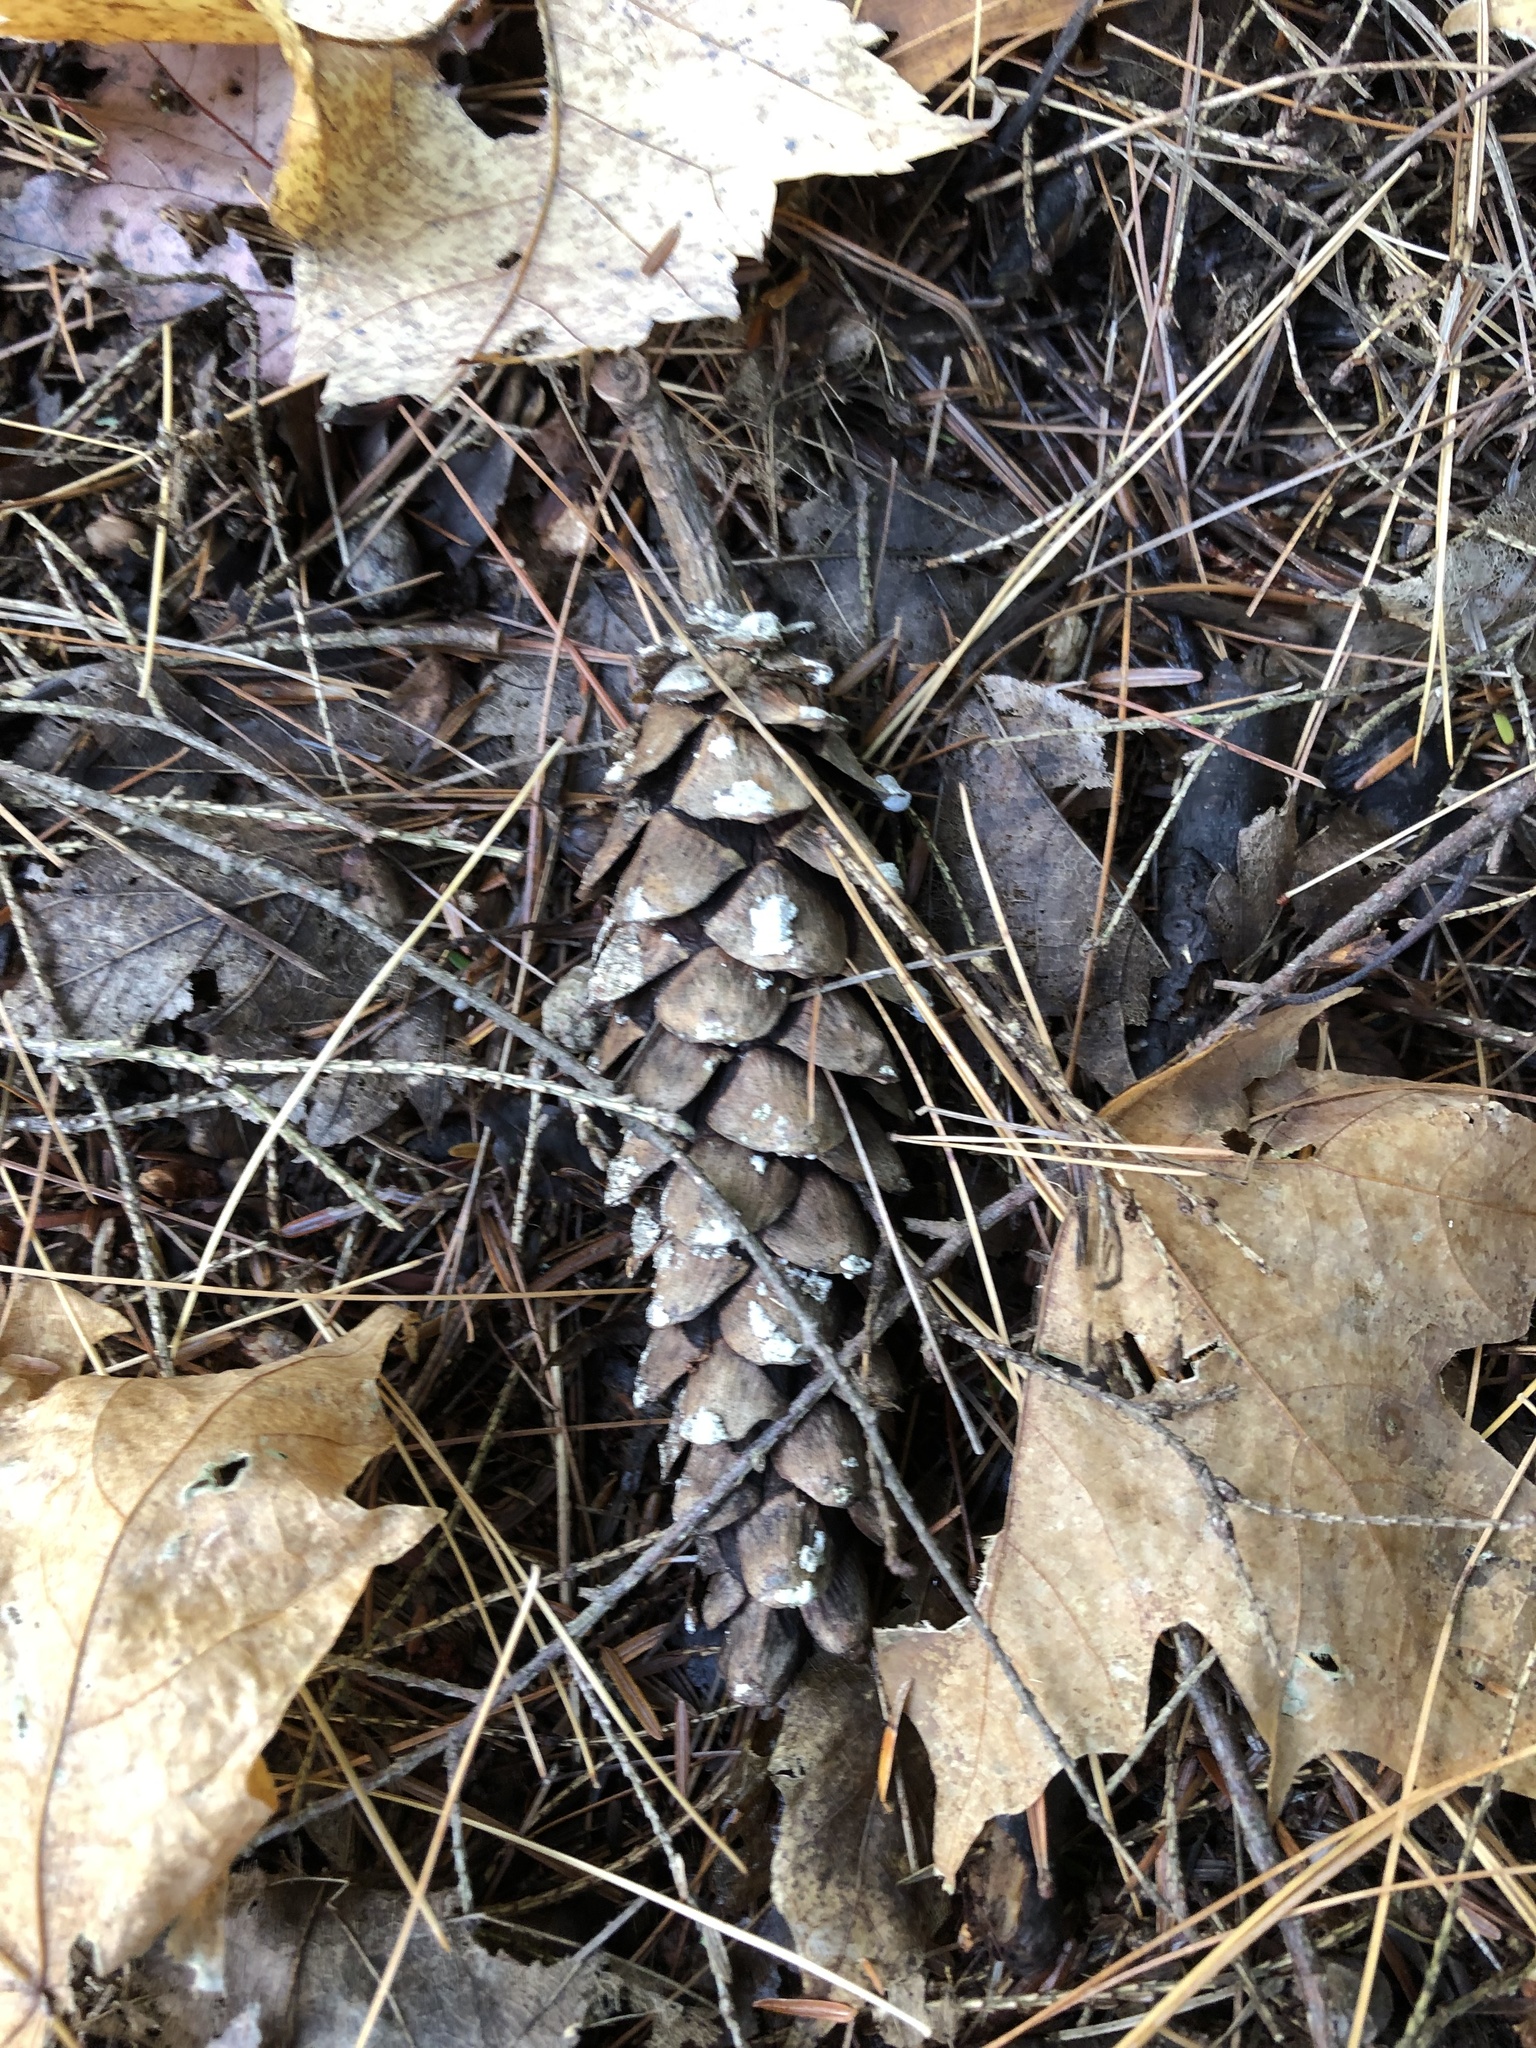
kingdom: Plantae
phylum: Tracheophyta
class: Pinopsida
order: Pinales
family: Pinaceae
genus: Pinus
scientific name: Pinus strobus
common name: Weymouth pine
